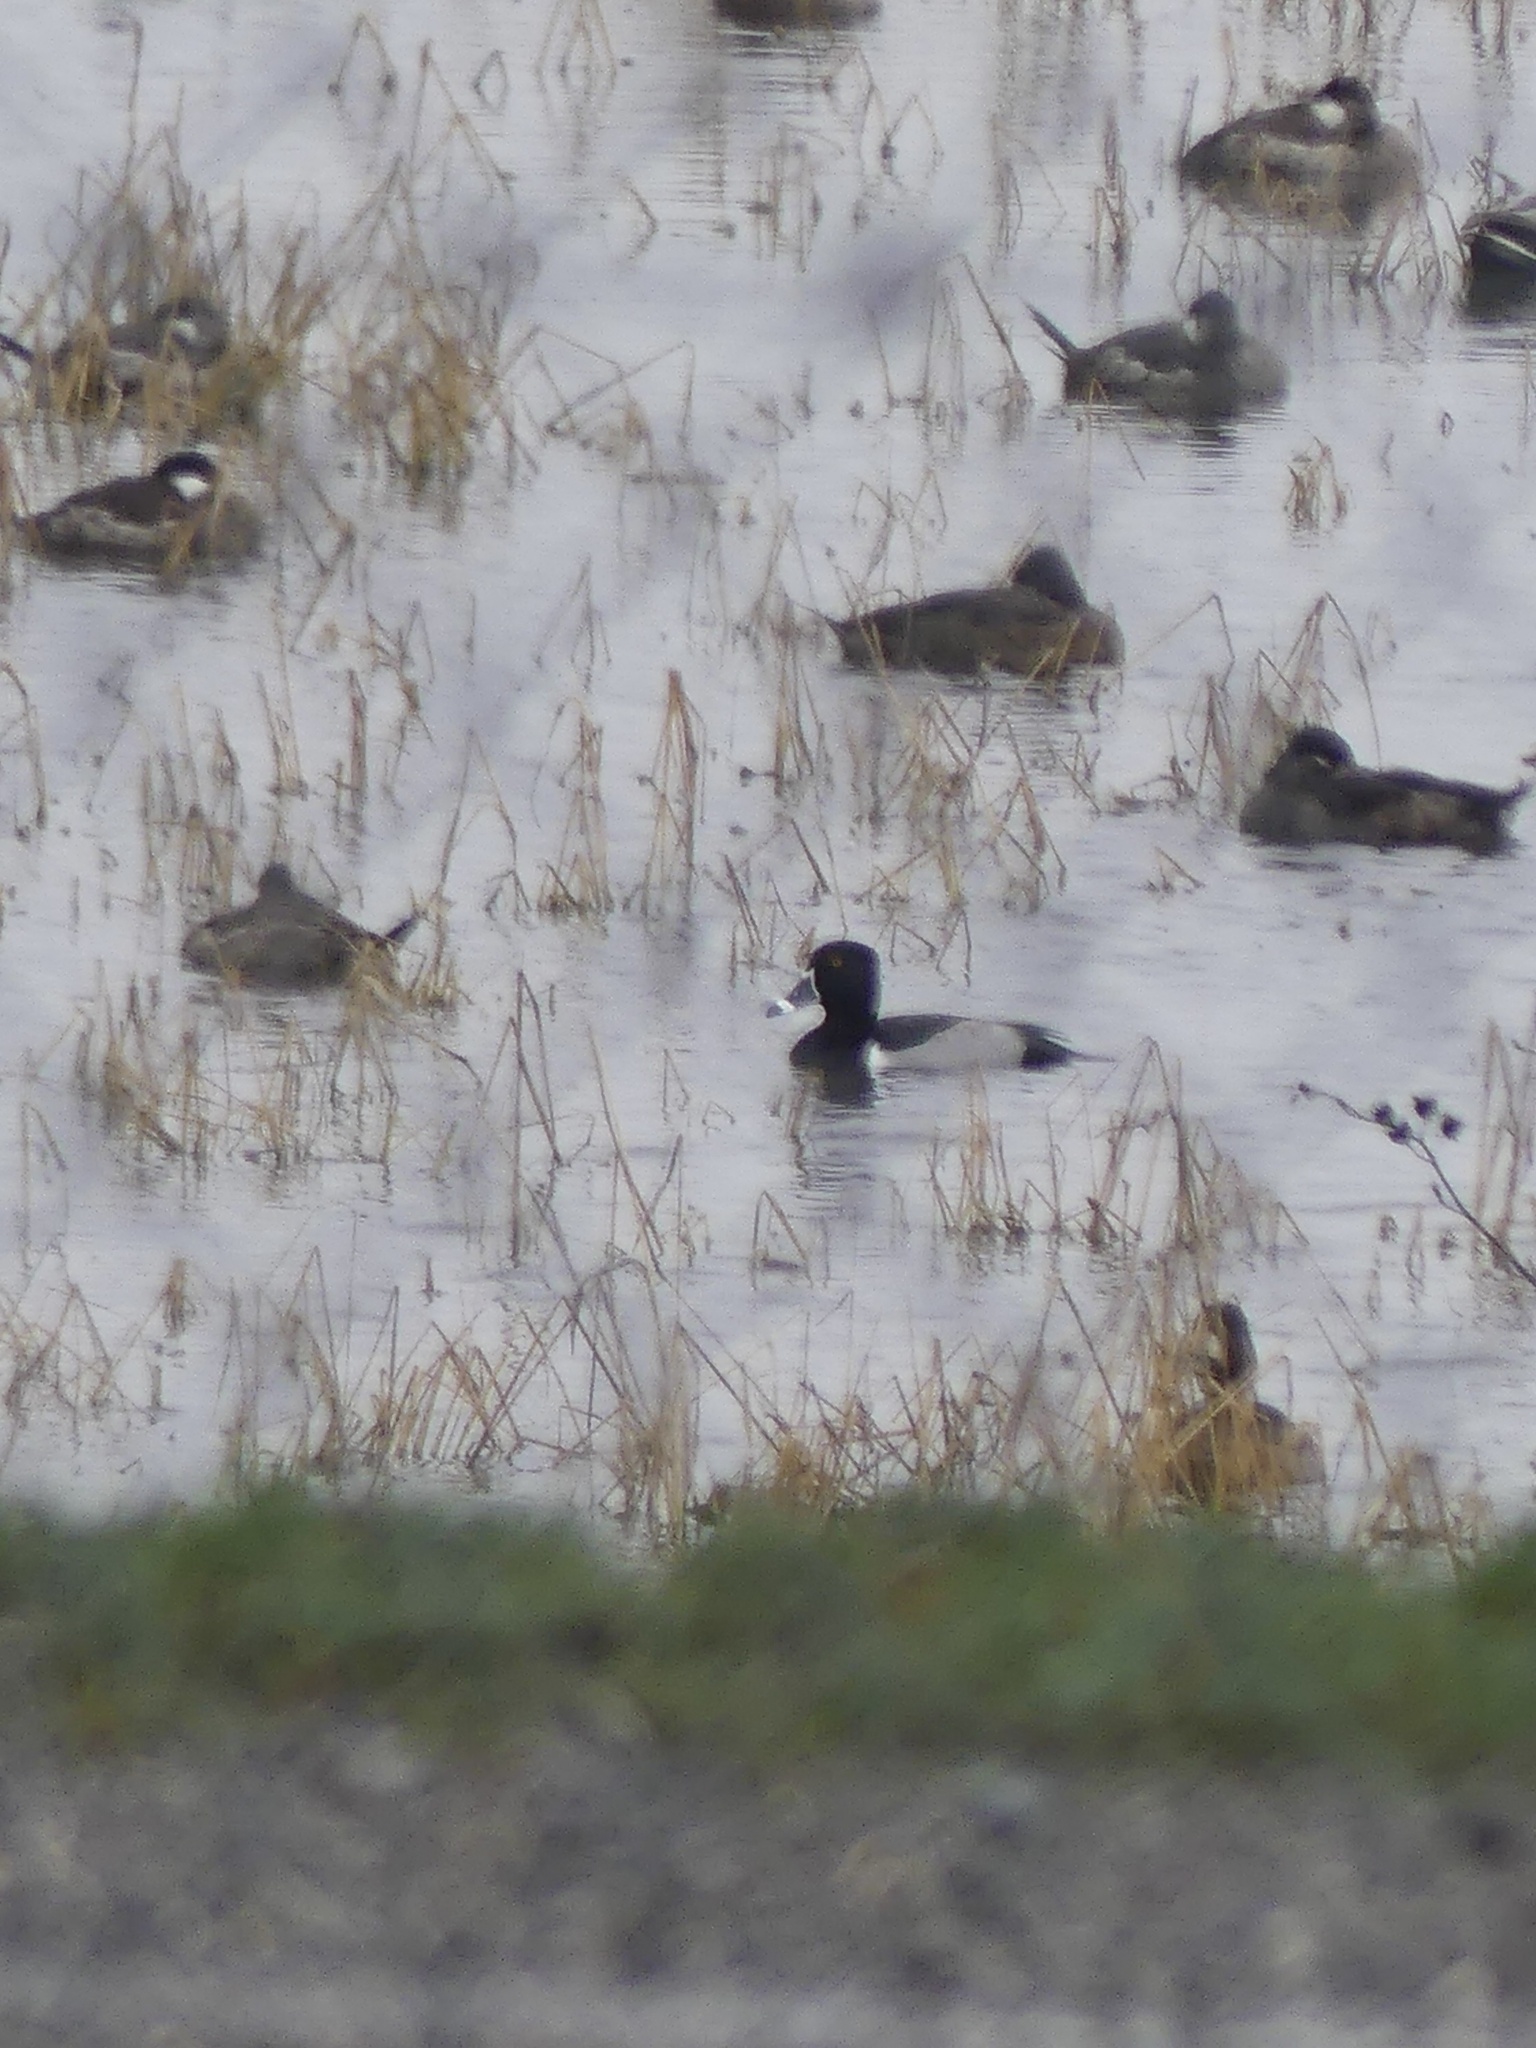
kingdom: Animalia
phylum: Chordata
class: Aves
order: Anseriformes
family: Anatidae
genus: Aythya
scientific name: Aythya collaris
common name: Ring-necked duck
